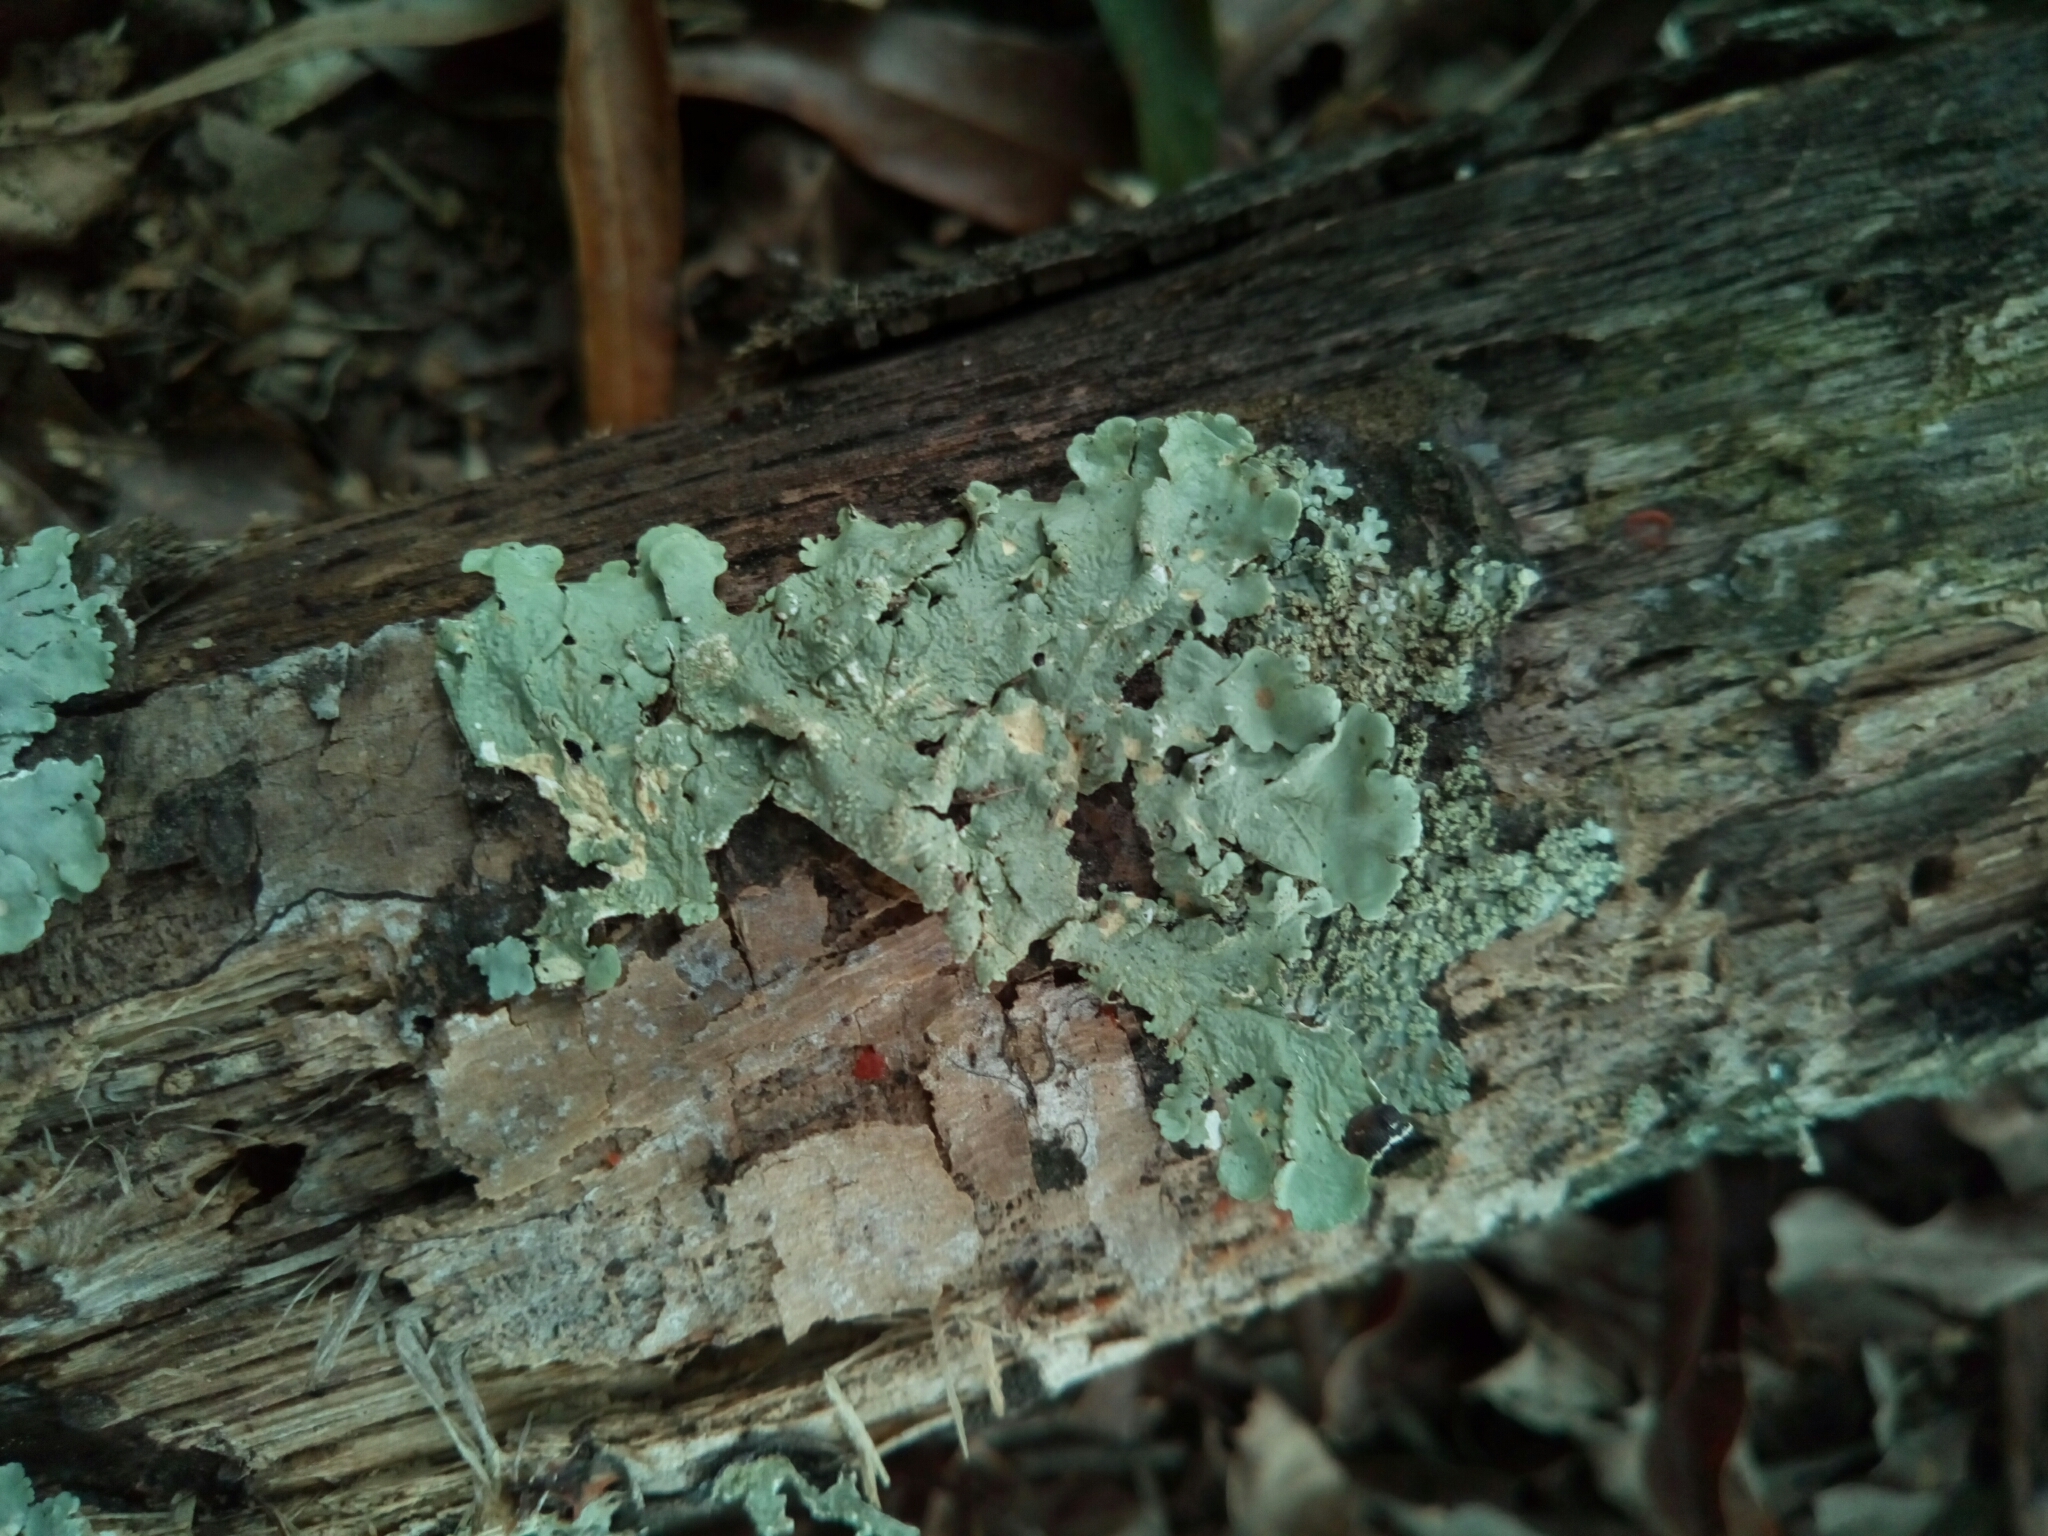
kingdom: Fungi
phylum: Ascomycota
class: Lecanoromycetes
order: Lecanorales
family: Parmeliaceae
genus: Flavoparmelia
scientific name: Flavoparmelia caperata
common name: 40-mile per hour lichen
